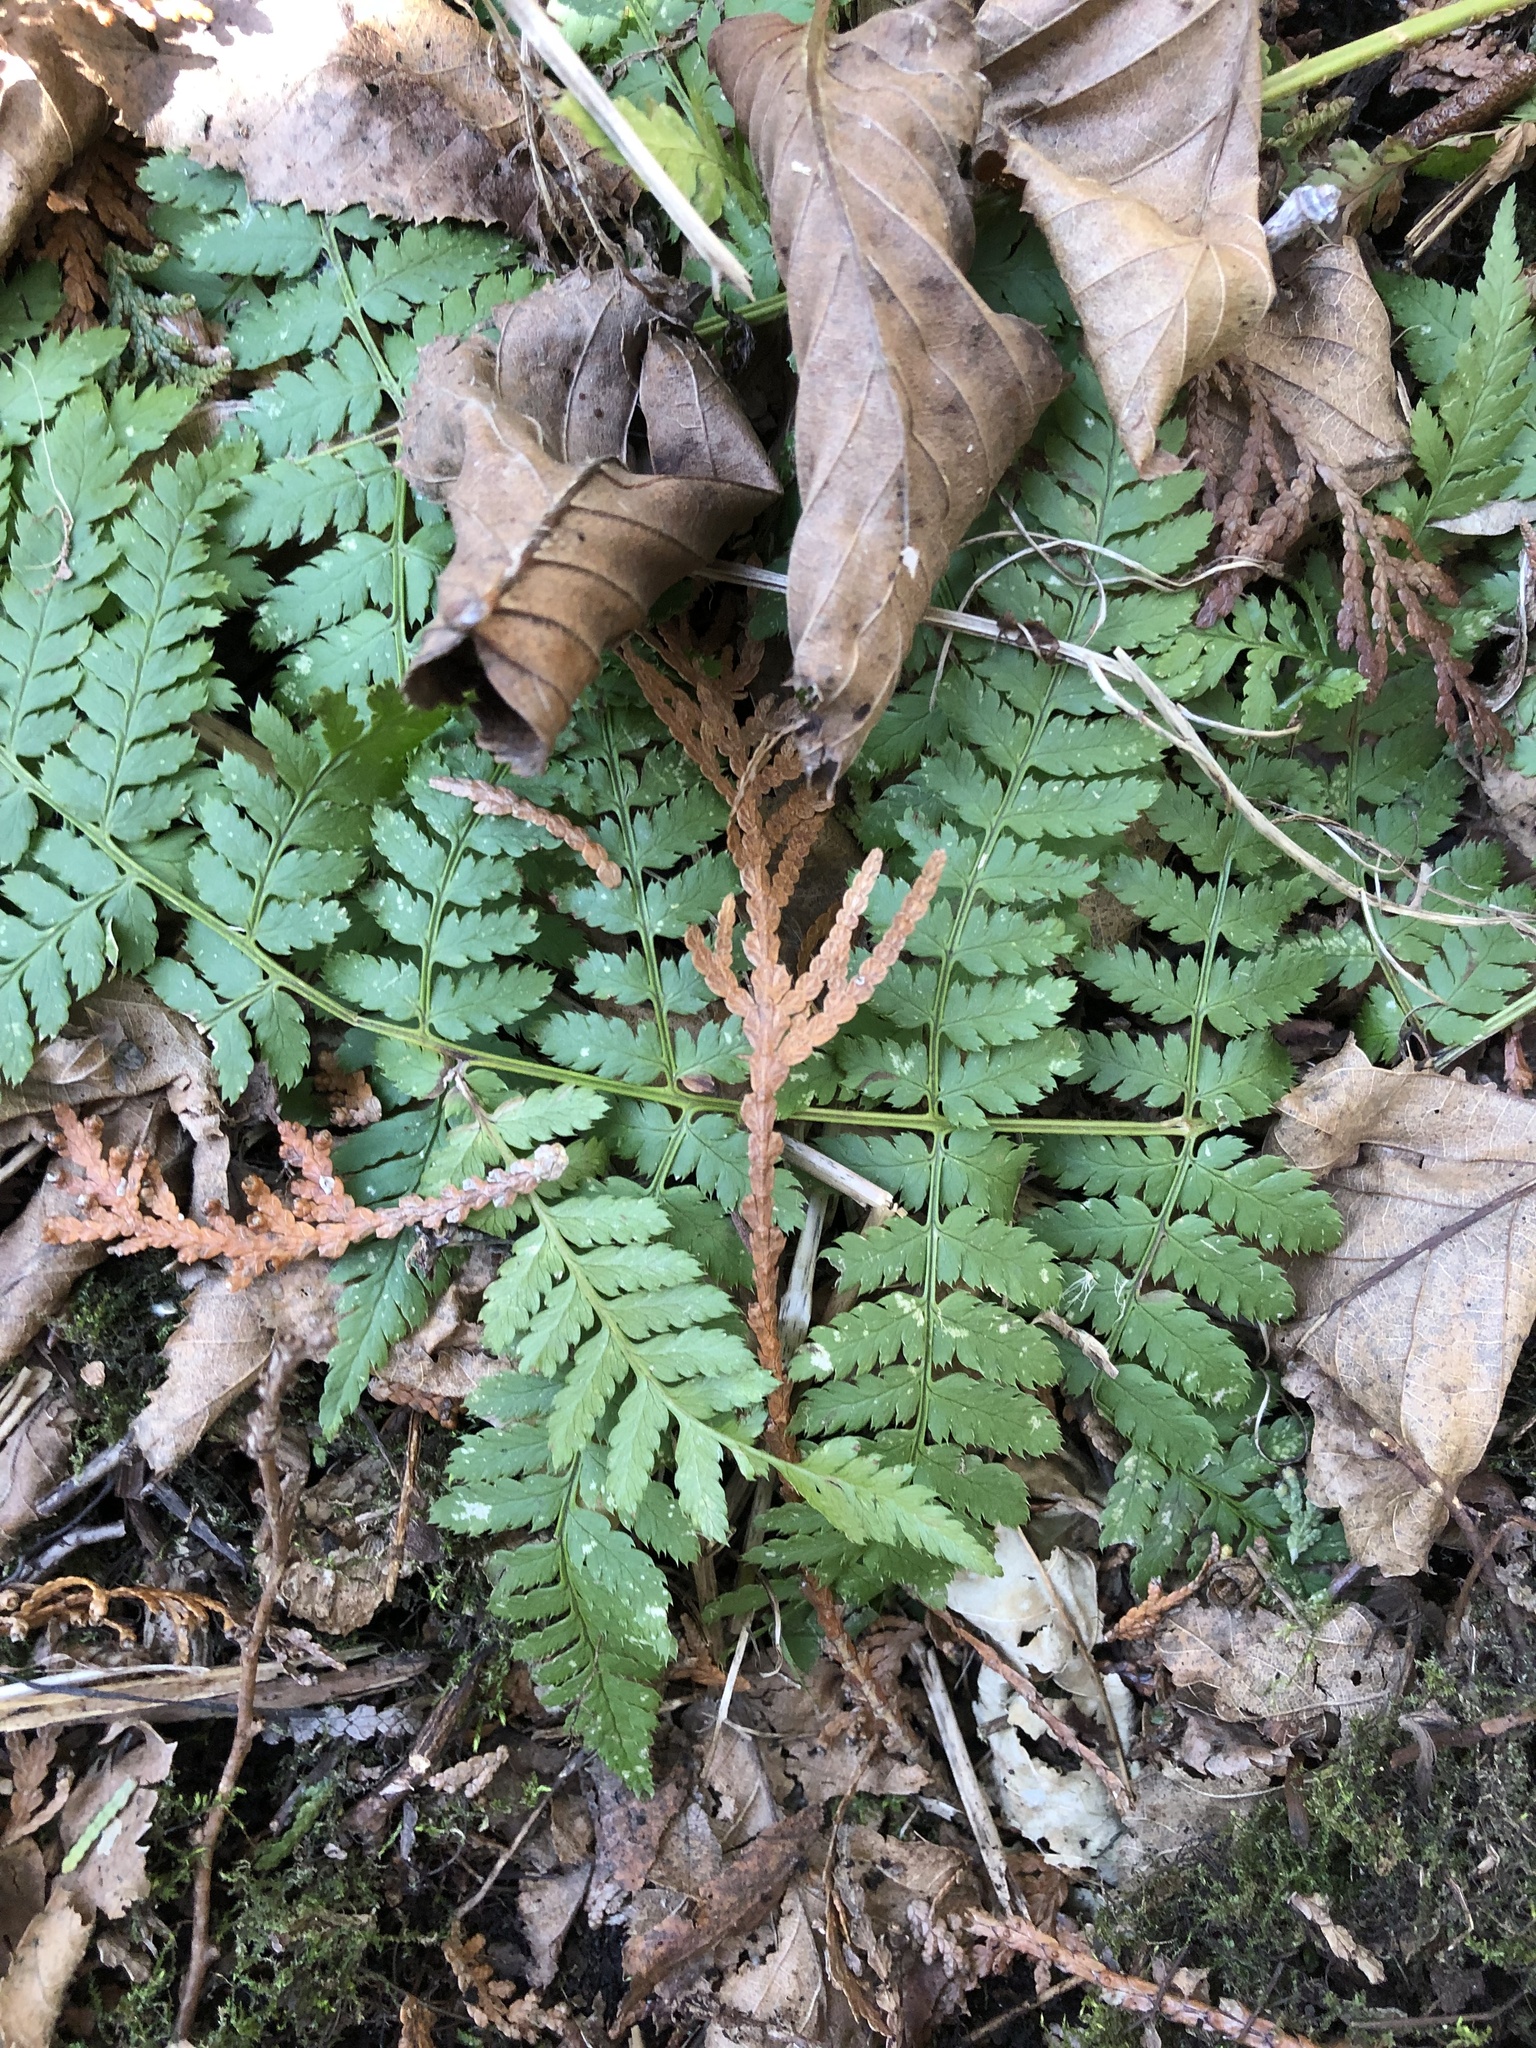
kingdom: Plantae
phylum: Tracheophyta
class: Polypodiopsida
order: Polypodiales
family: Dryopteridaceae
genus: Dryopteris
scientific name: Dryopteris intermedia
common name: Evergreen wood fern
